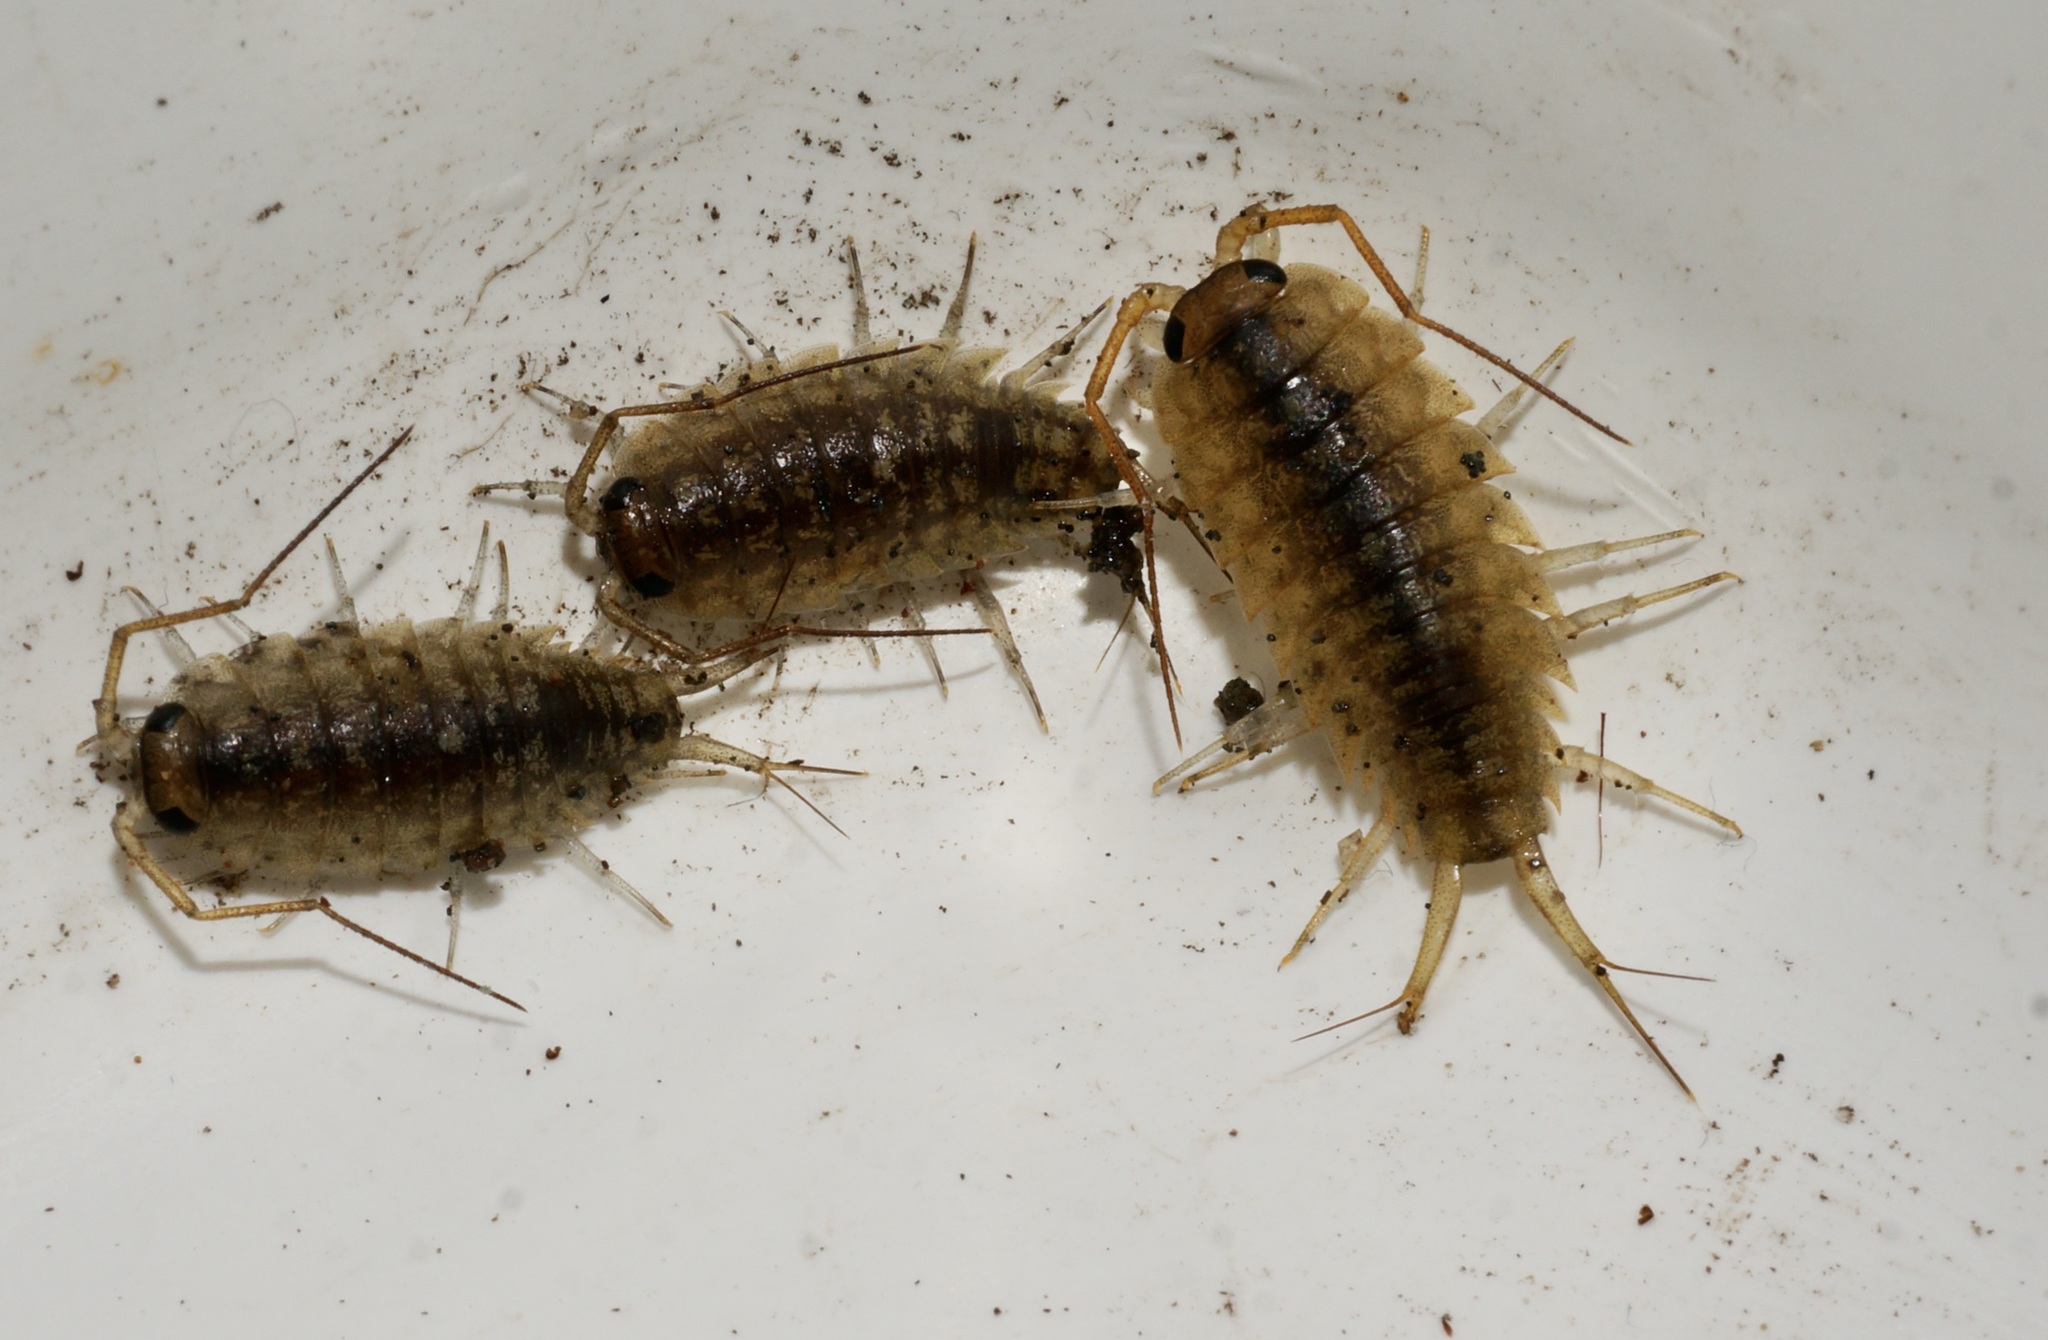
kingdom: Animalia
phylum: Arthropoda
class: Malacostraca
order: Isopoda
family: Ligiidae
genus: Ligia
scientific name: Ligia novizealandiae
